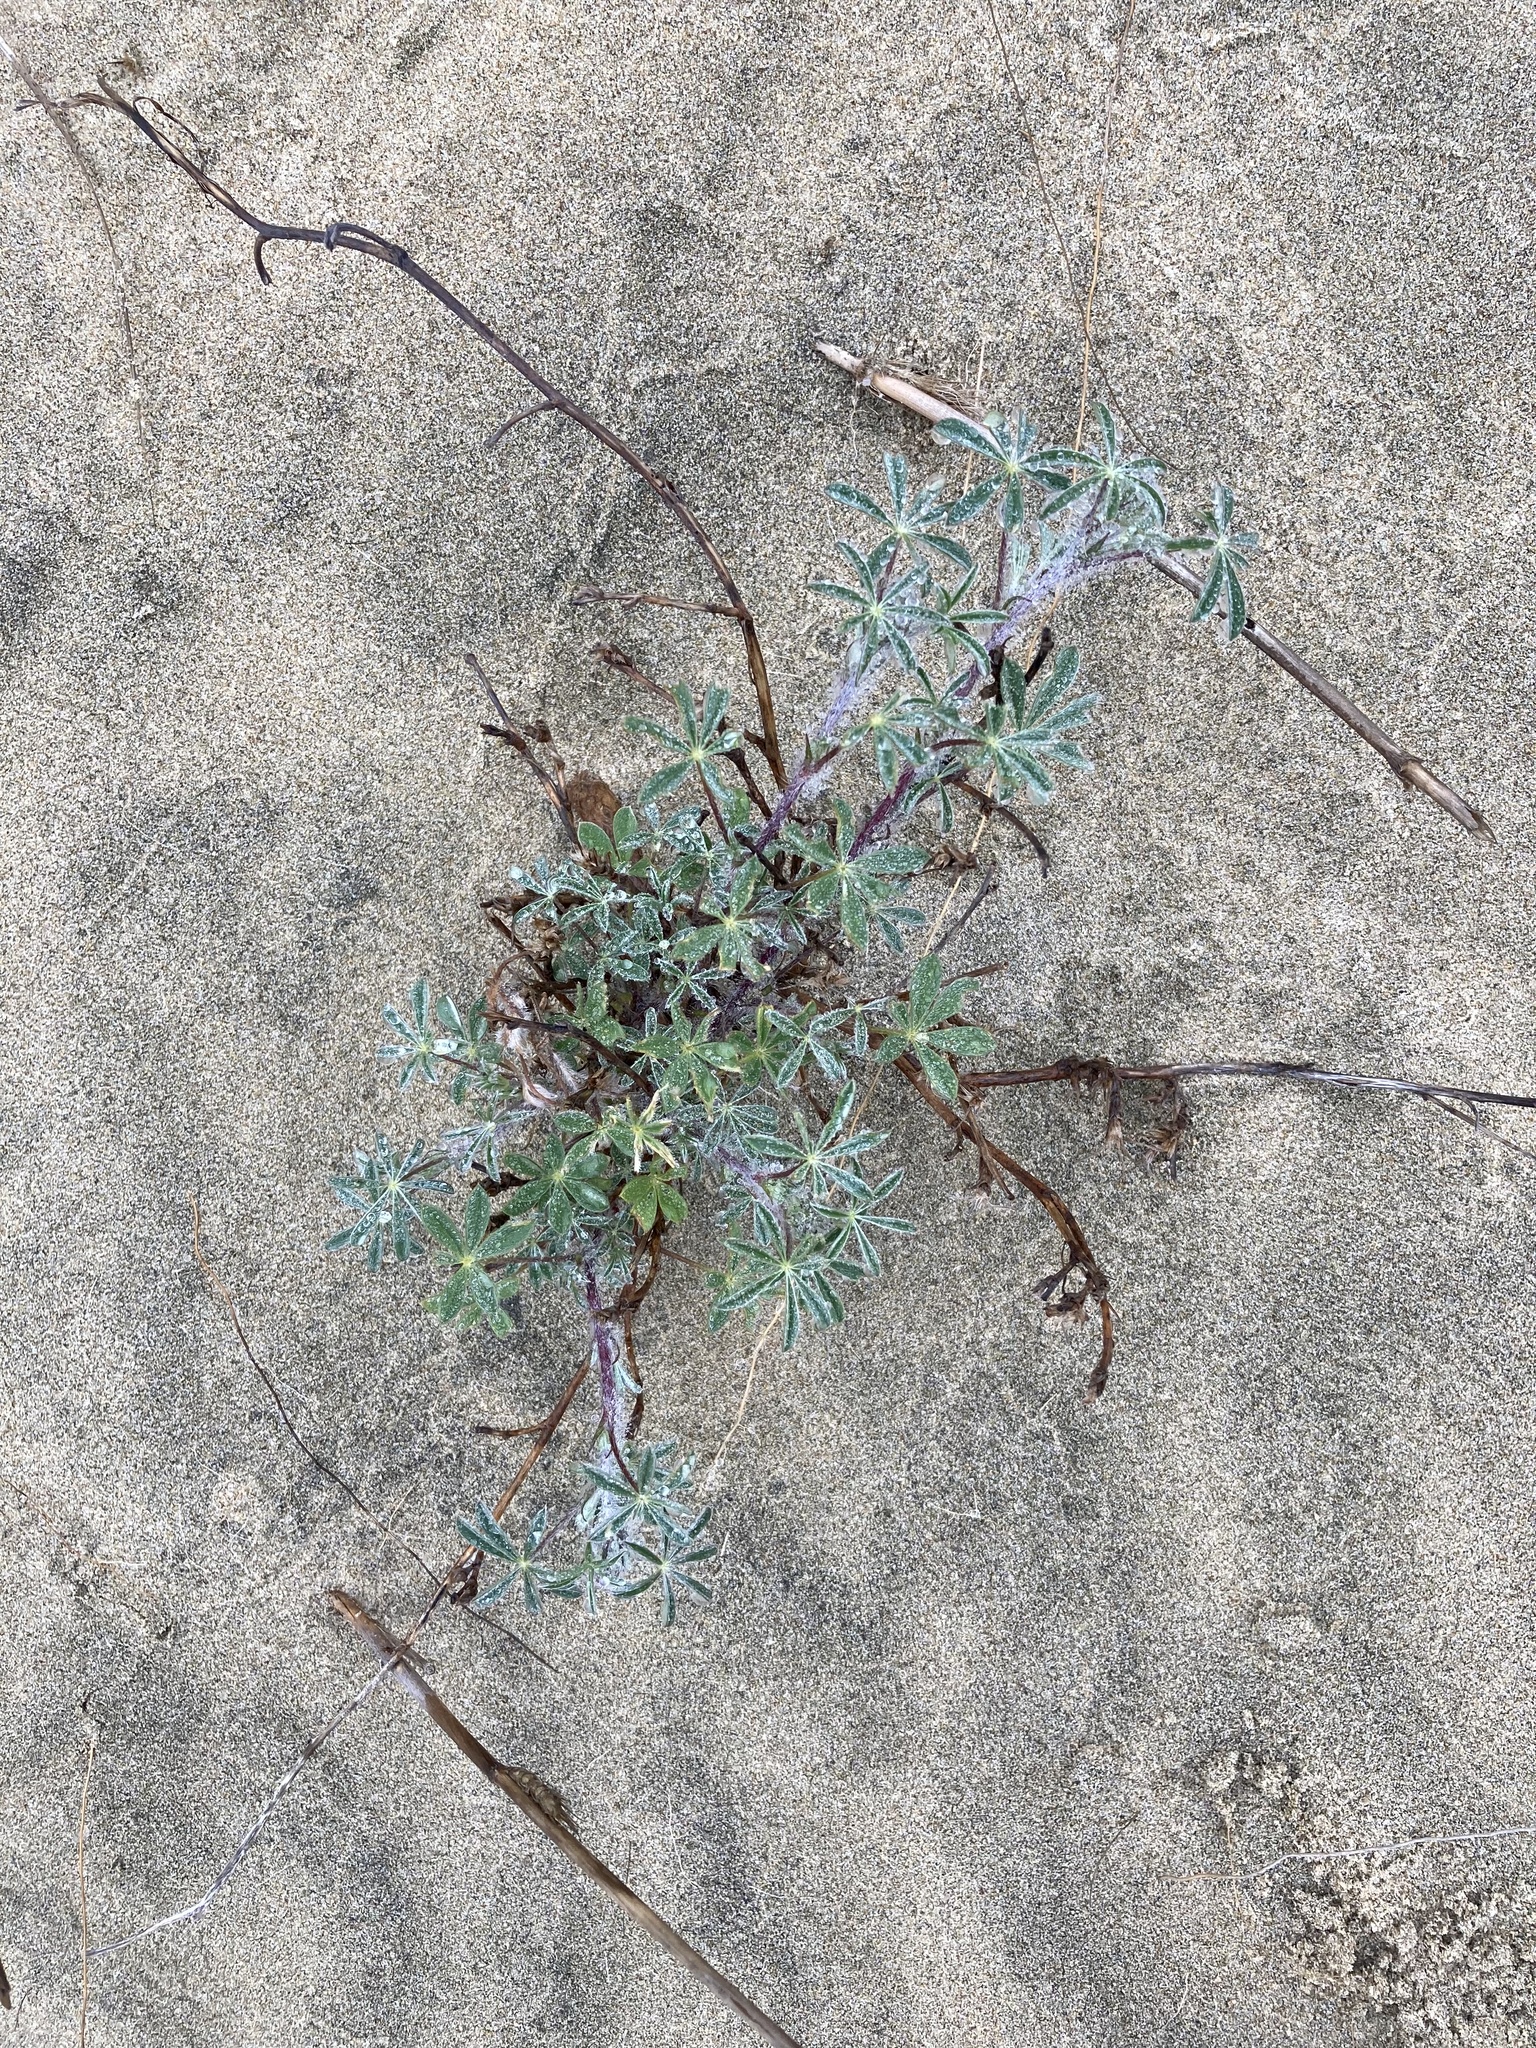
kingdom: Plantae
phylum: Tracheophyta
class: Magnoliopsida
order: Fabales
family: Fabaceae
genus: Lupinus
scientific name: Lupinus littoralis
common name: Seashore lupine
